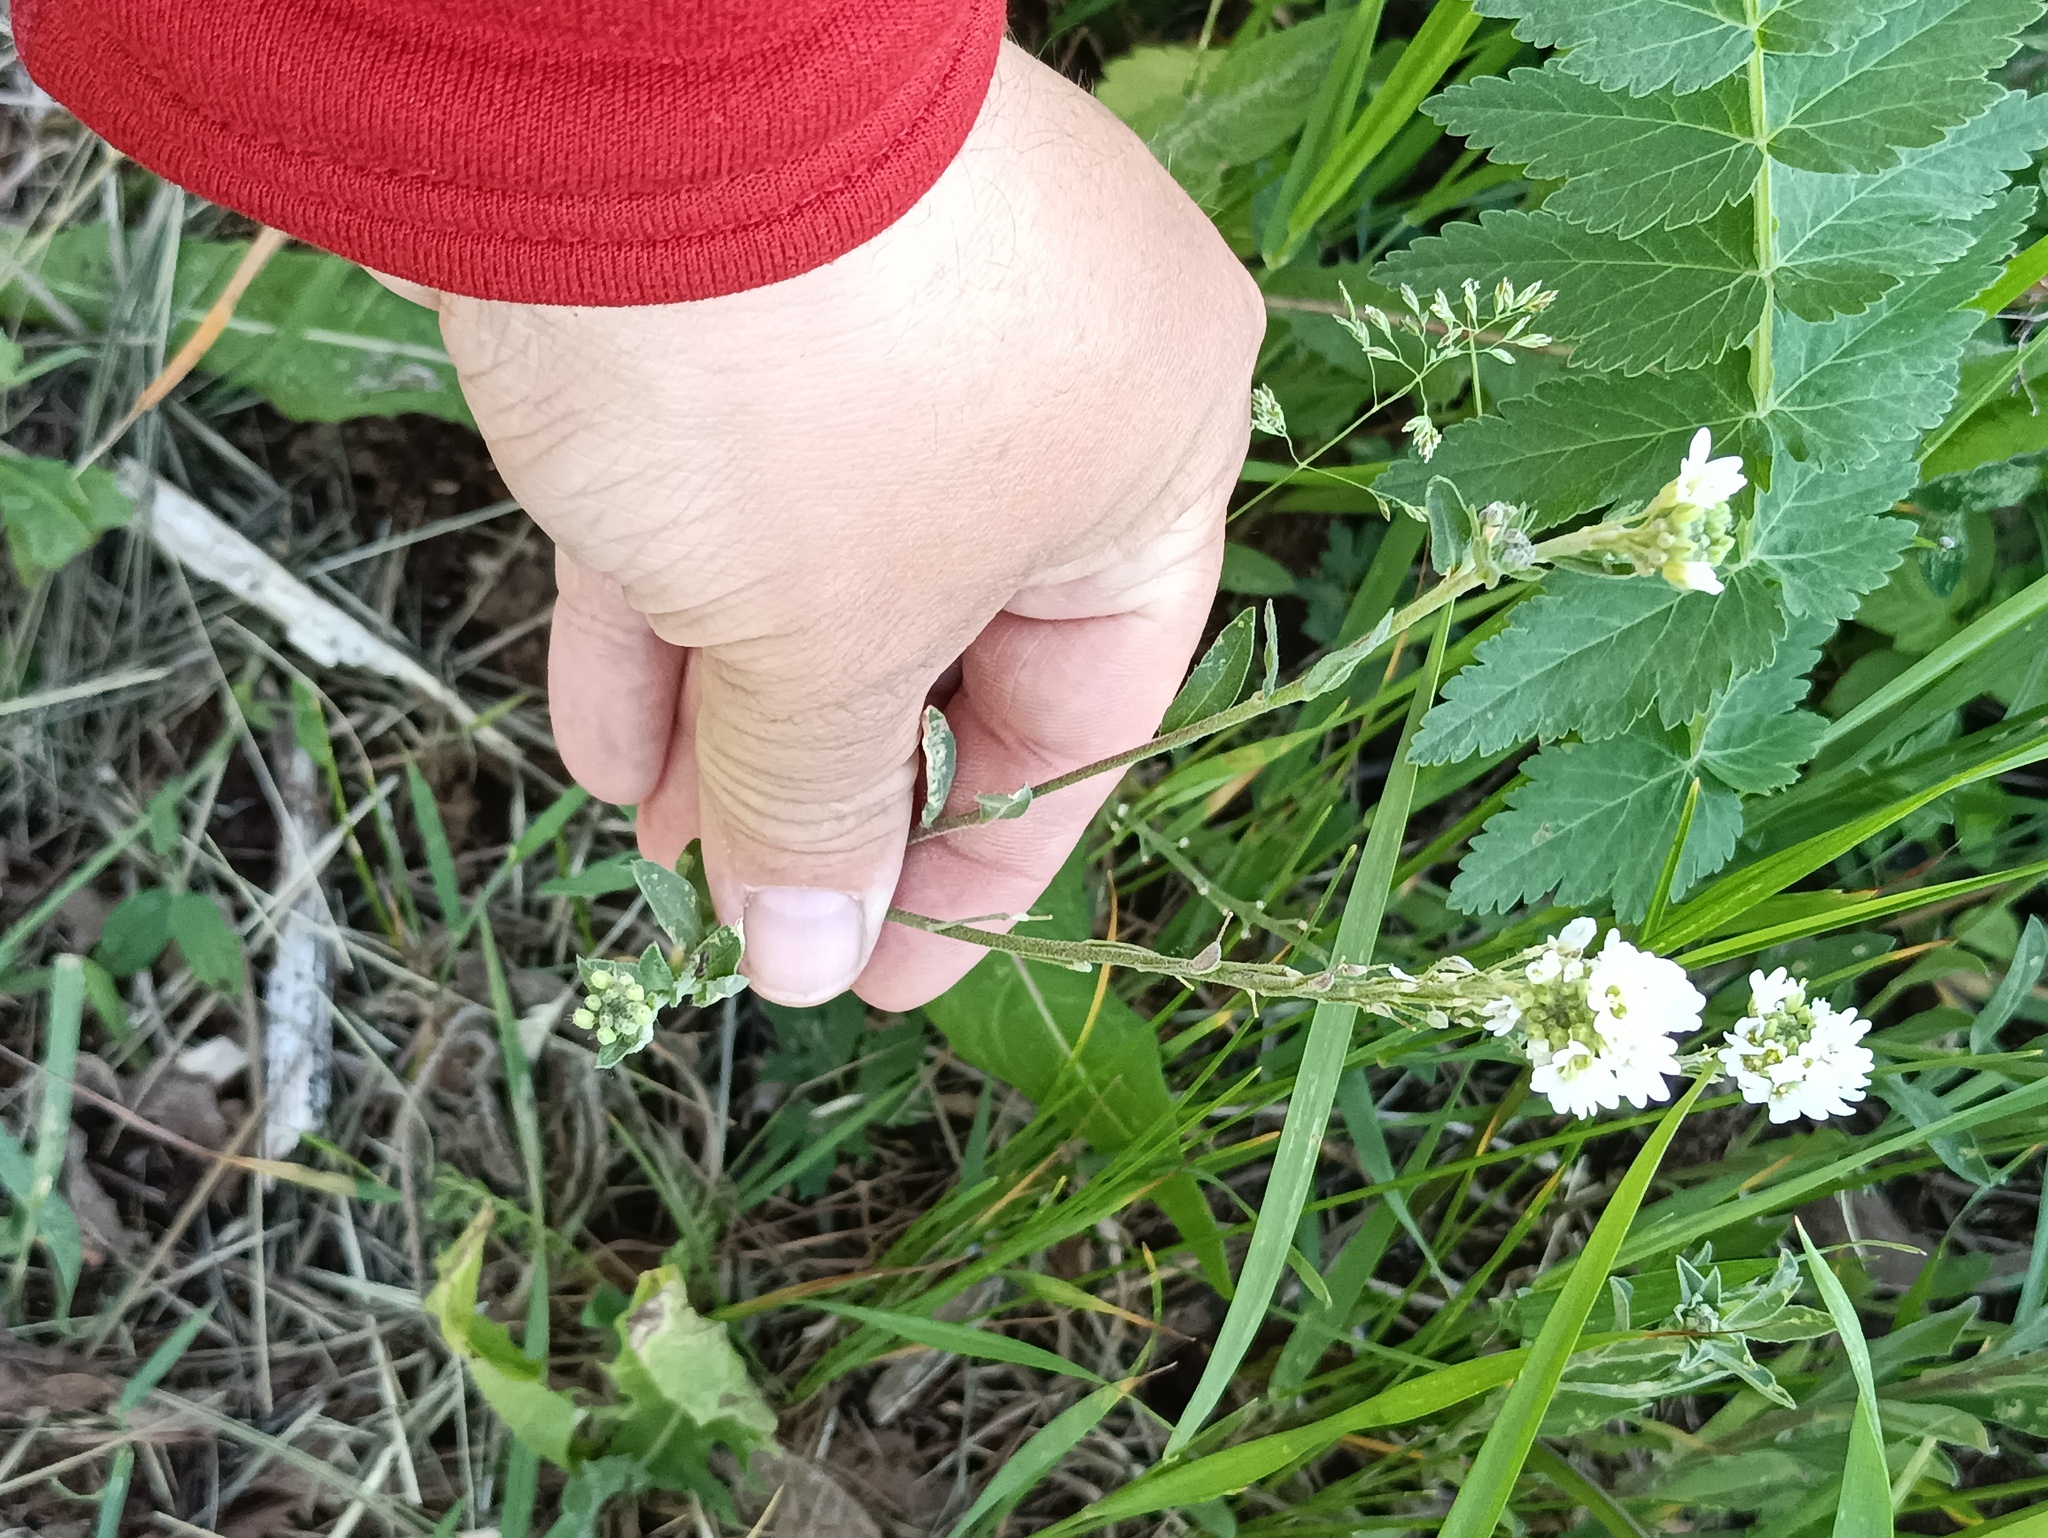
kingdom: Plantae
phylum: Tracheophyta
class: Magnoliopsida
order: Brassicales
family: Brassicaceae
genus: Berteroa
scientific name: Berteroa incana
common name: Hoary alison
